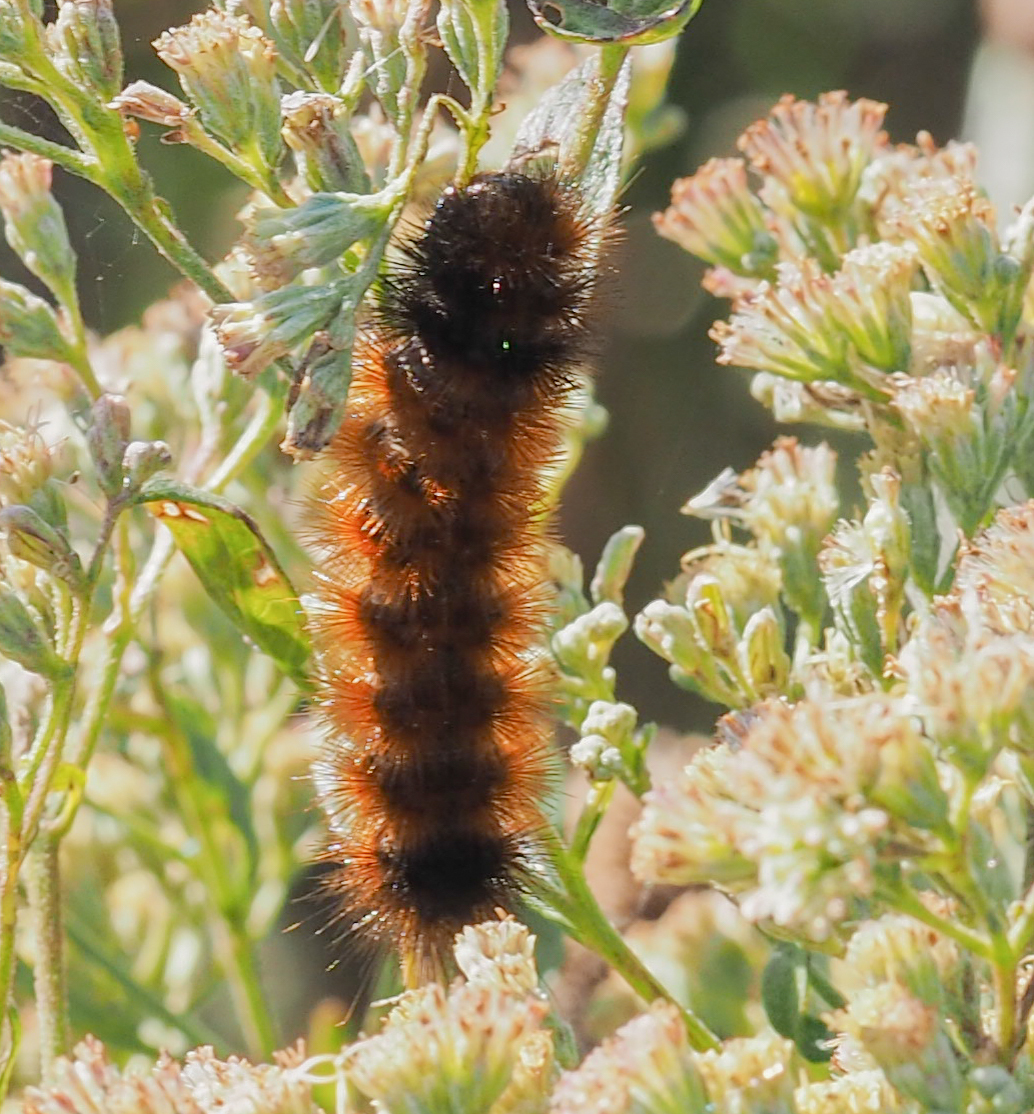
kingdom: Animalia
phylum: Arthropoda
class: Insecta
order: Lepidoptera
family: Erebidae
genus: Pyrrharctia
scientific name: Pyrrharctia isabella
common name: Isabella tiger moth
